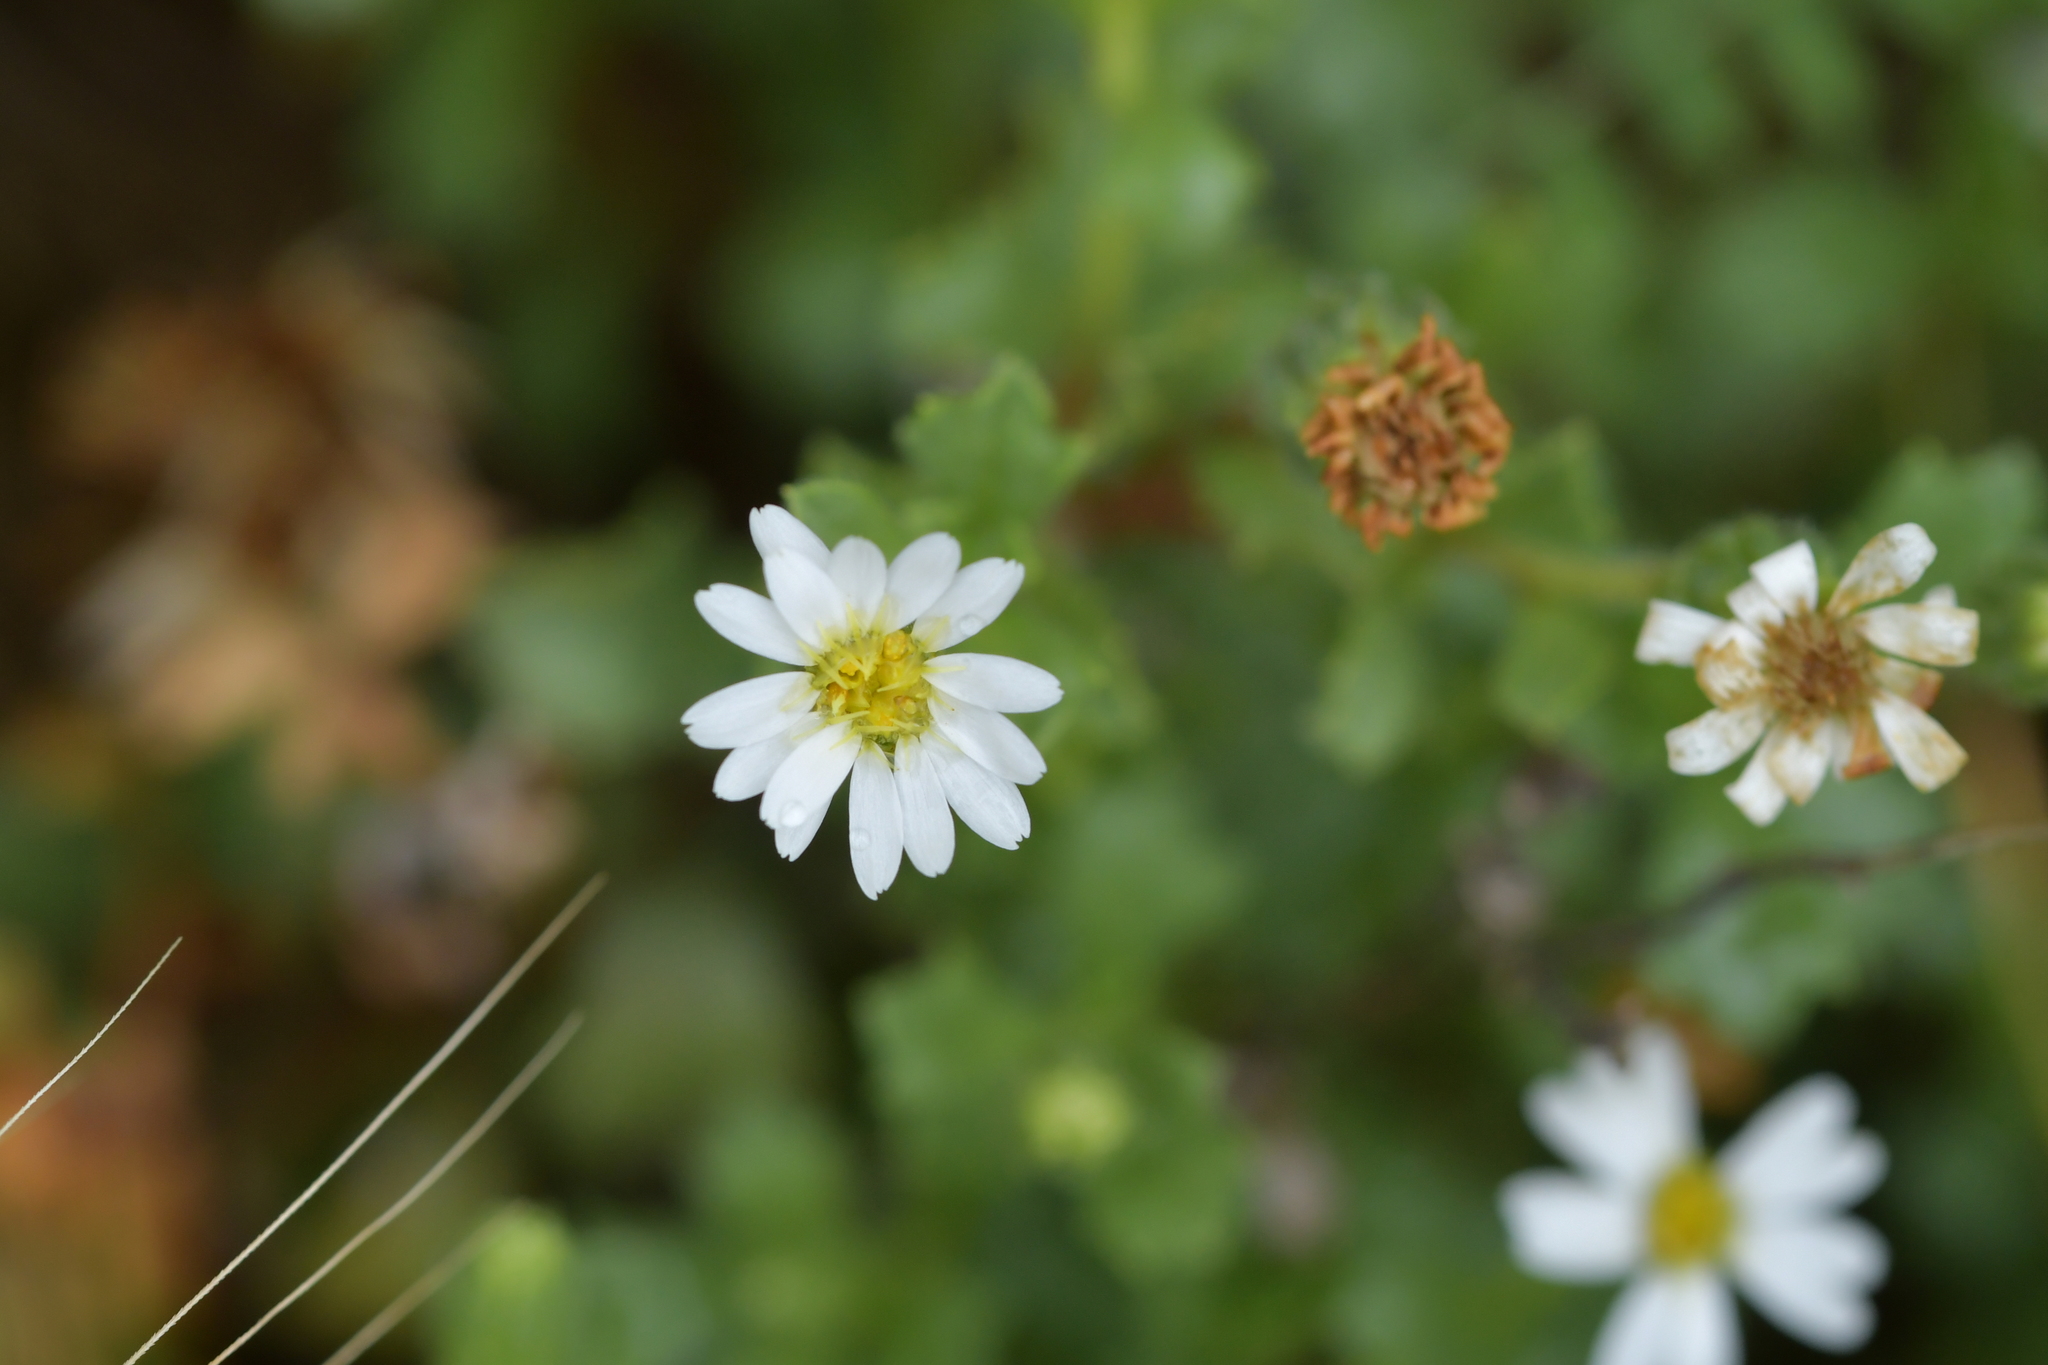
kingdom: Plantae
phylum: Tracheophyta
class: Magnoliopsida
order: Asterales
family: Asteraceae
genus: Vittadinia
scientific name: Vittadinia australis
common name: White fuzzweed
